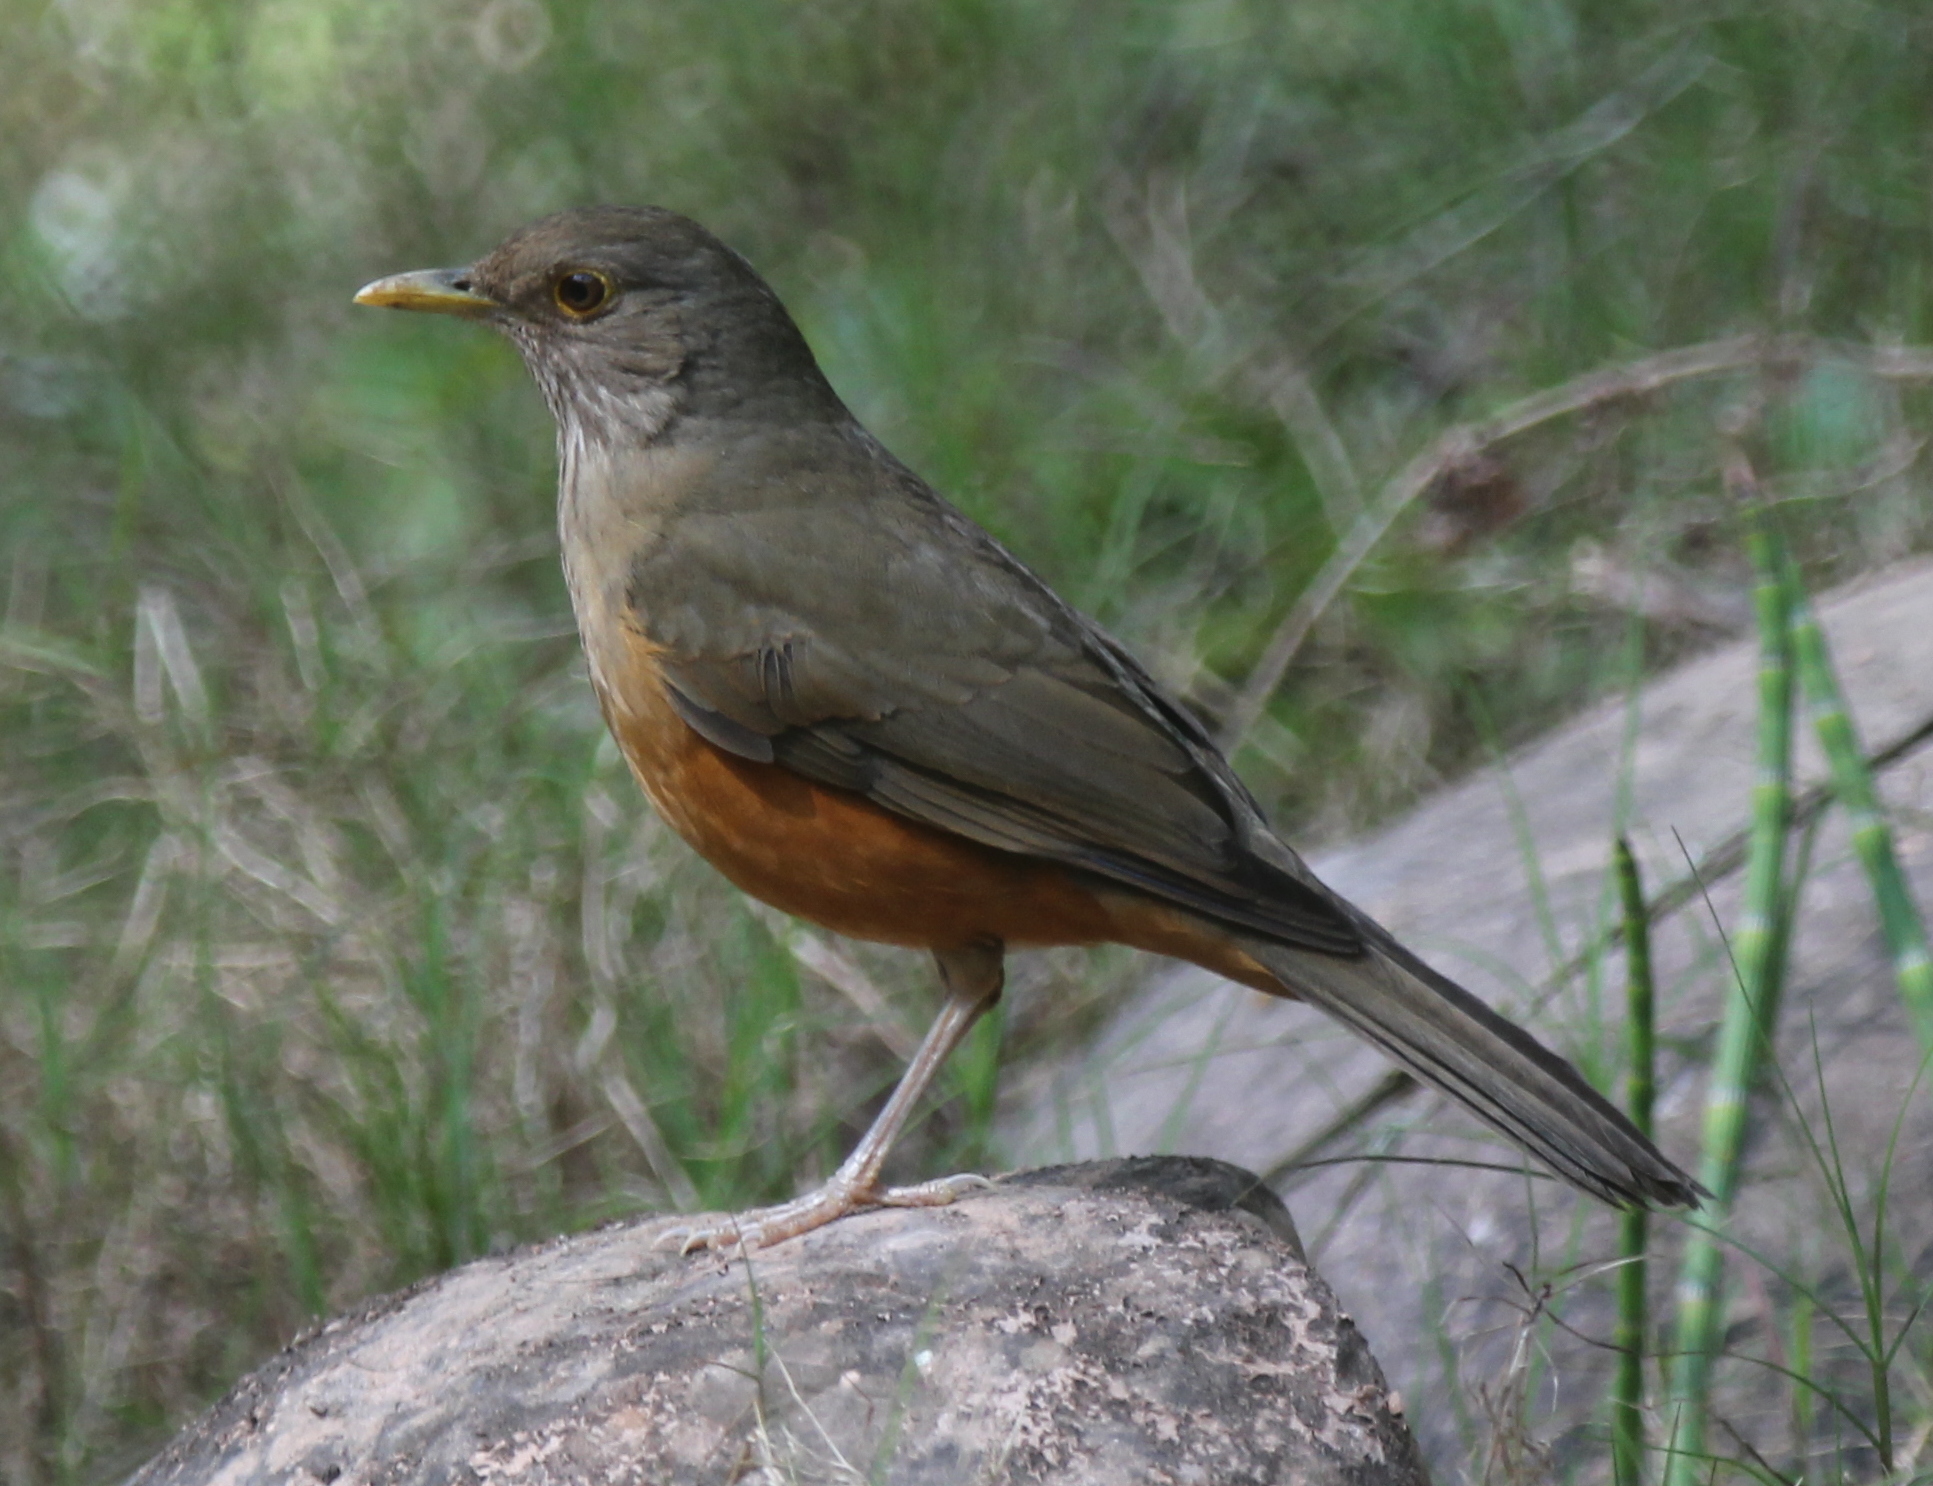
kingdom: Animalia
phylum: Chordata
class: Aves
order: Passeriformes
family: Turdidae
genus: Turdus
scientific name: Turdus rufiventris
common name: Rufous-bellied thrush
